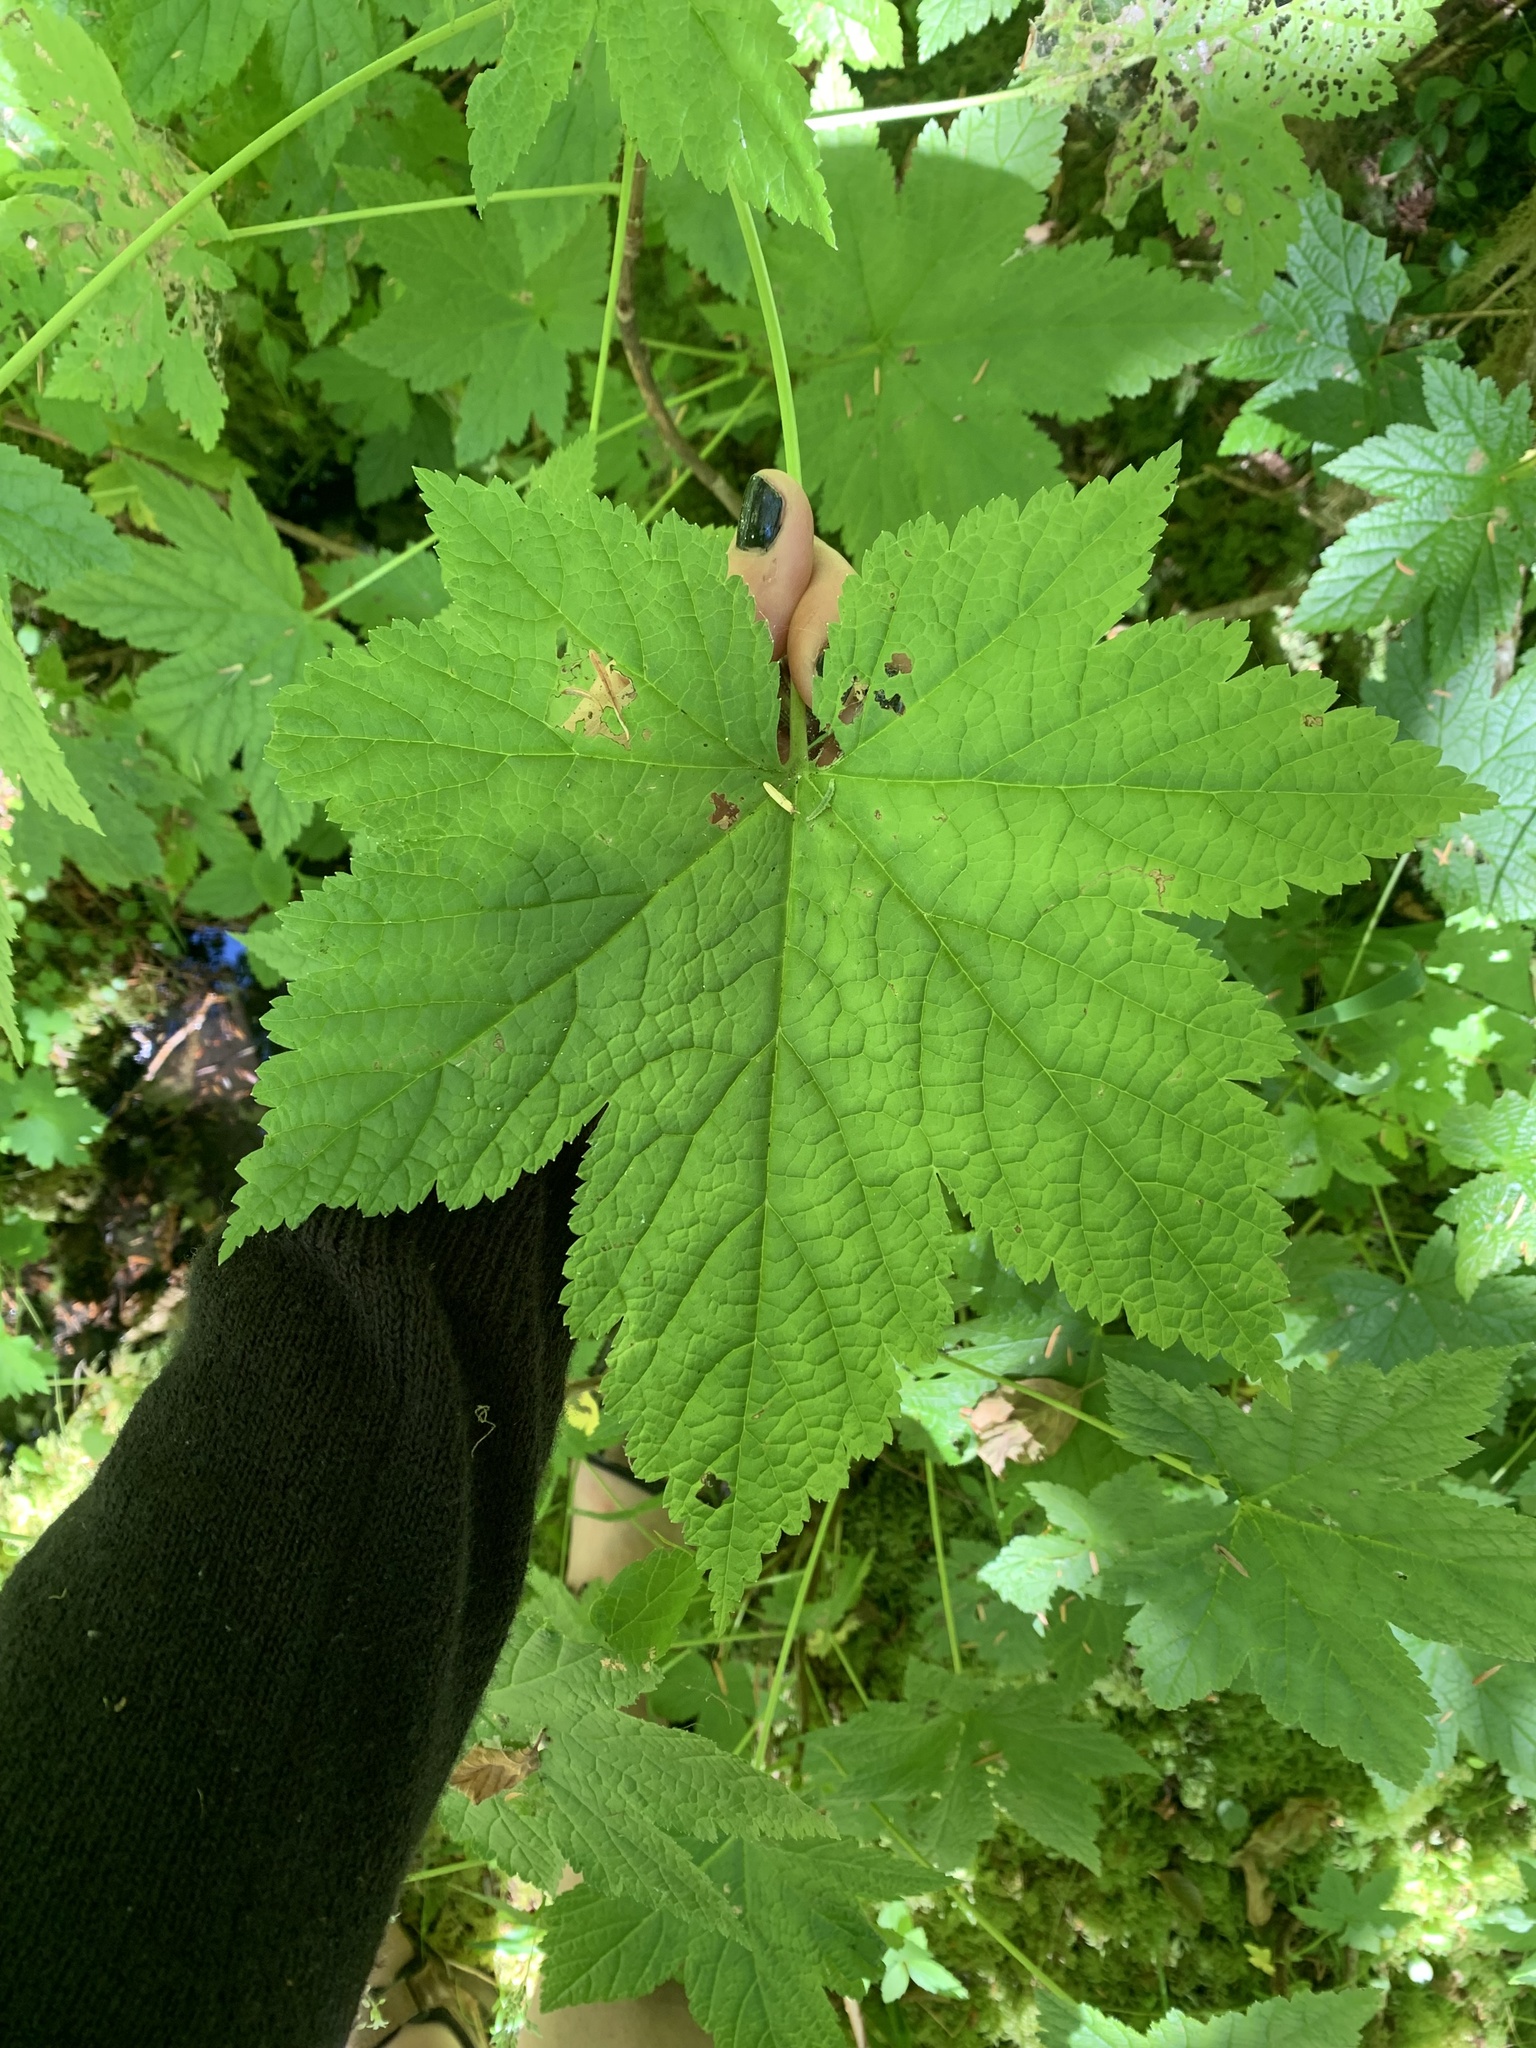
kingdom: Plantae
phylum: Tracheophyta
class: Magnoliopsida
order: Saxifragales
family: Grossulariaceae
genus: Ribes
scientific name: Ribes bracteosum
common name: California black currant
